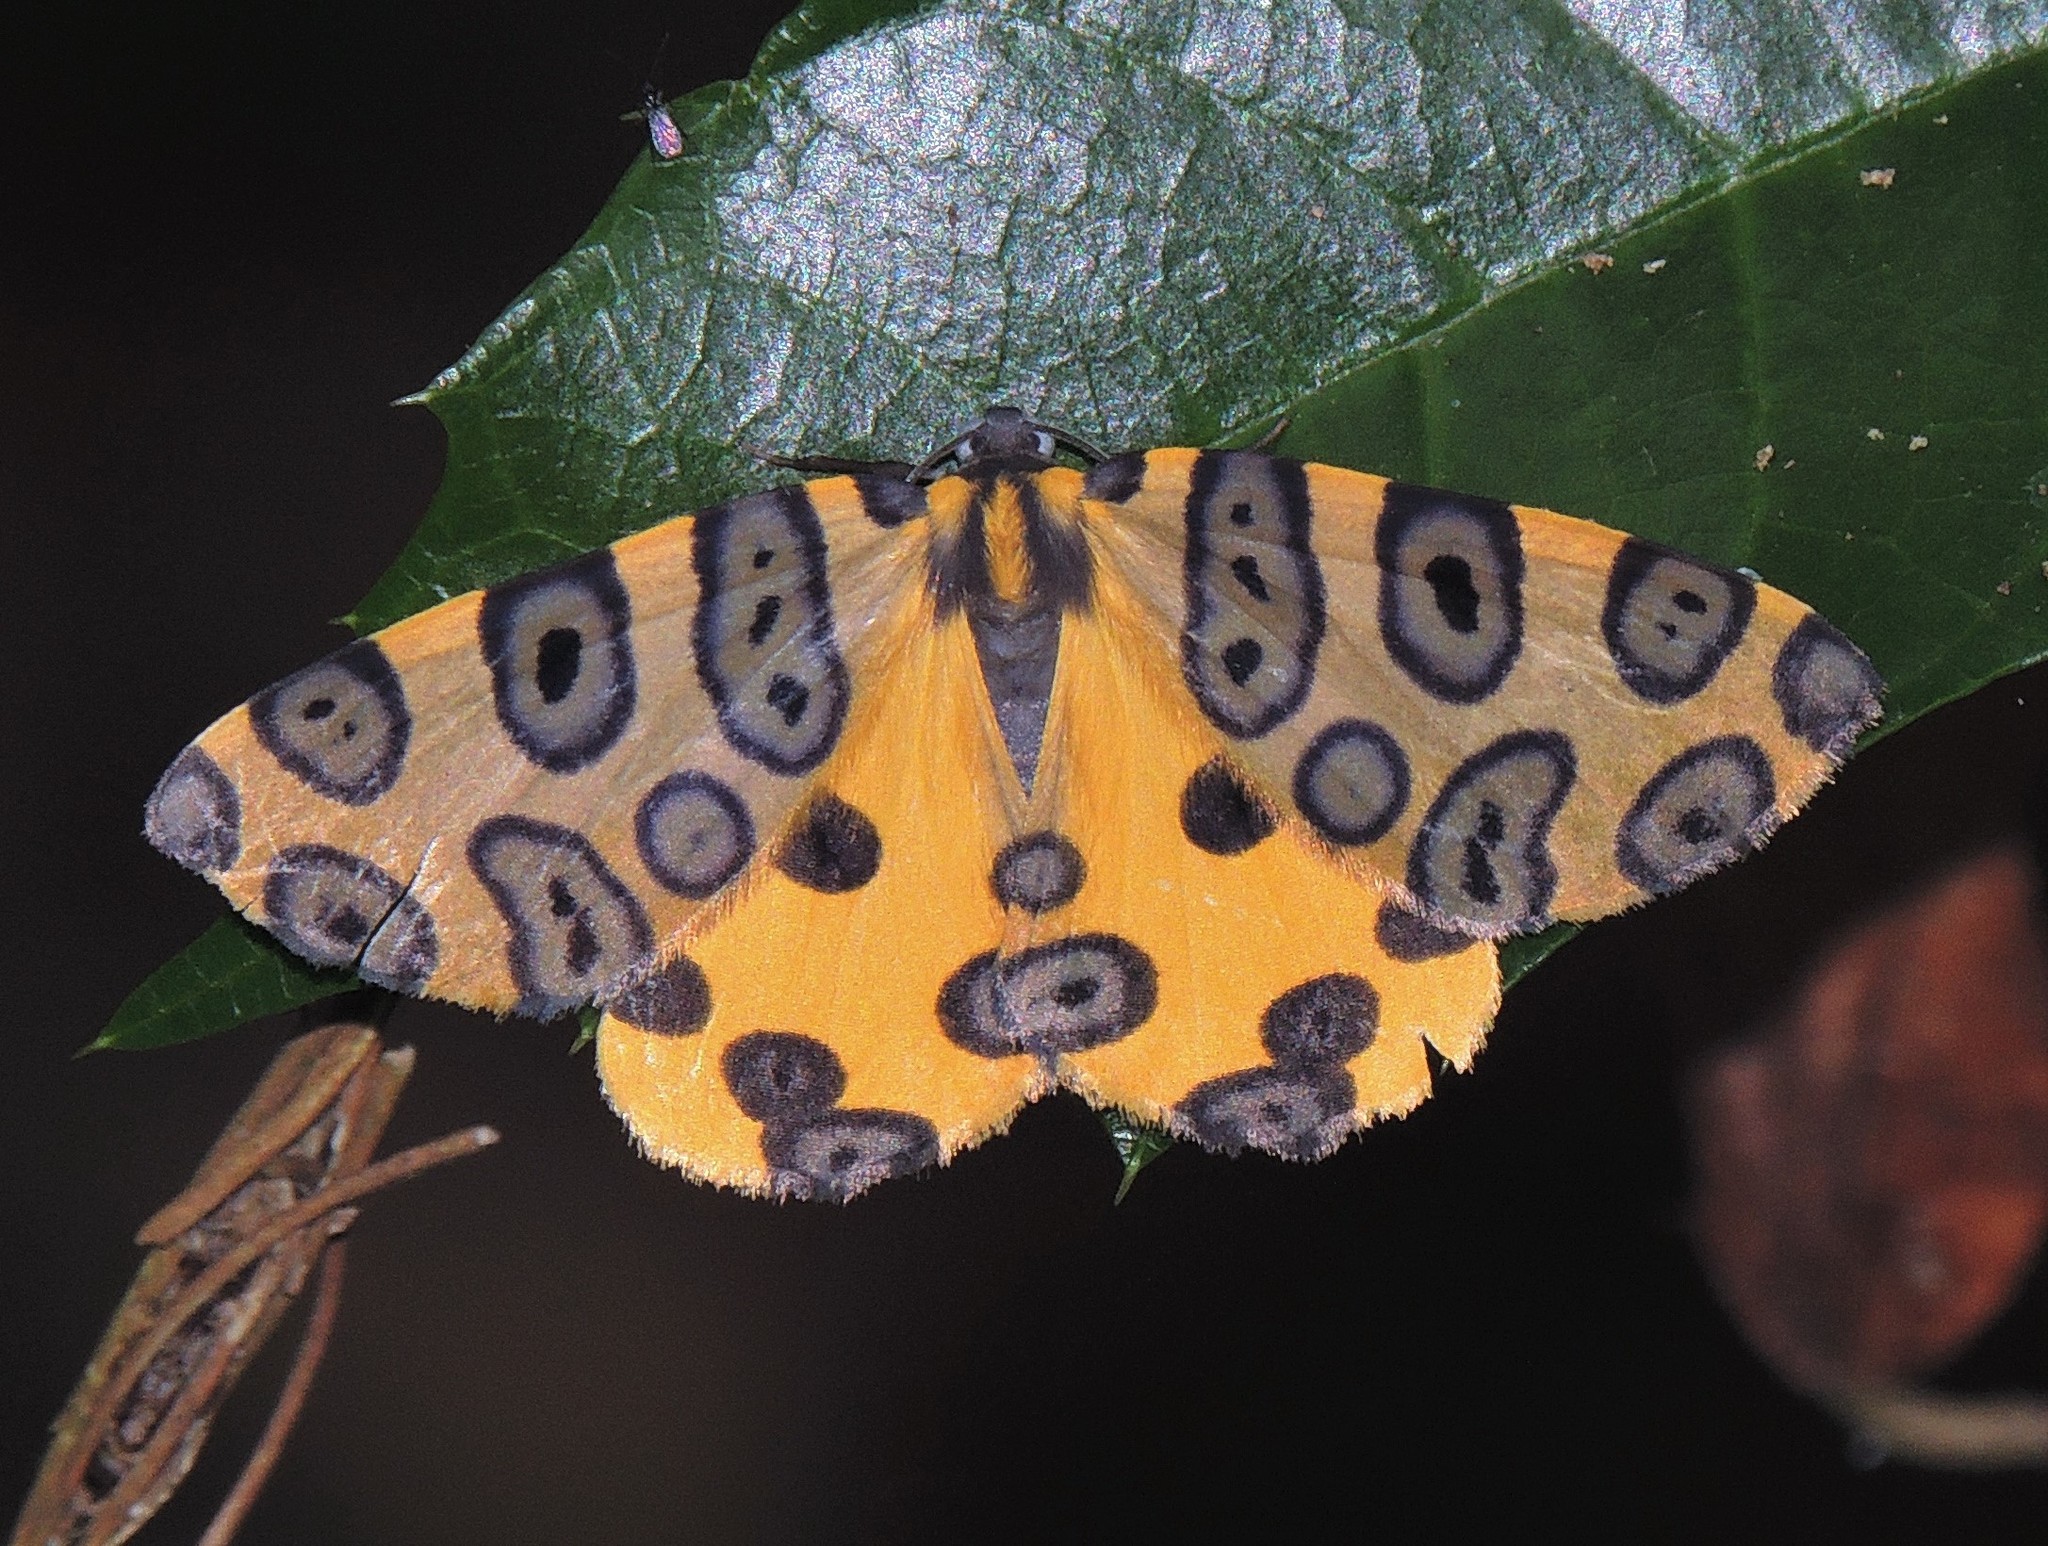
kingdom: Animalia
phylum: Arthropoda
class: Insecta
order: Lepidoptera
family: Geometridae
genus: Pantherodes
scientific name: Pantherodes pardalaria
